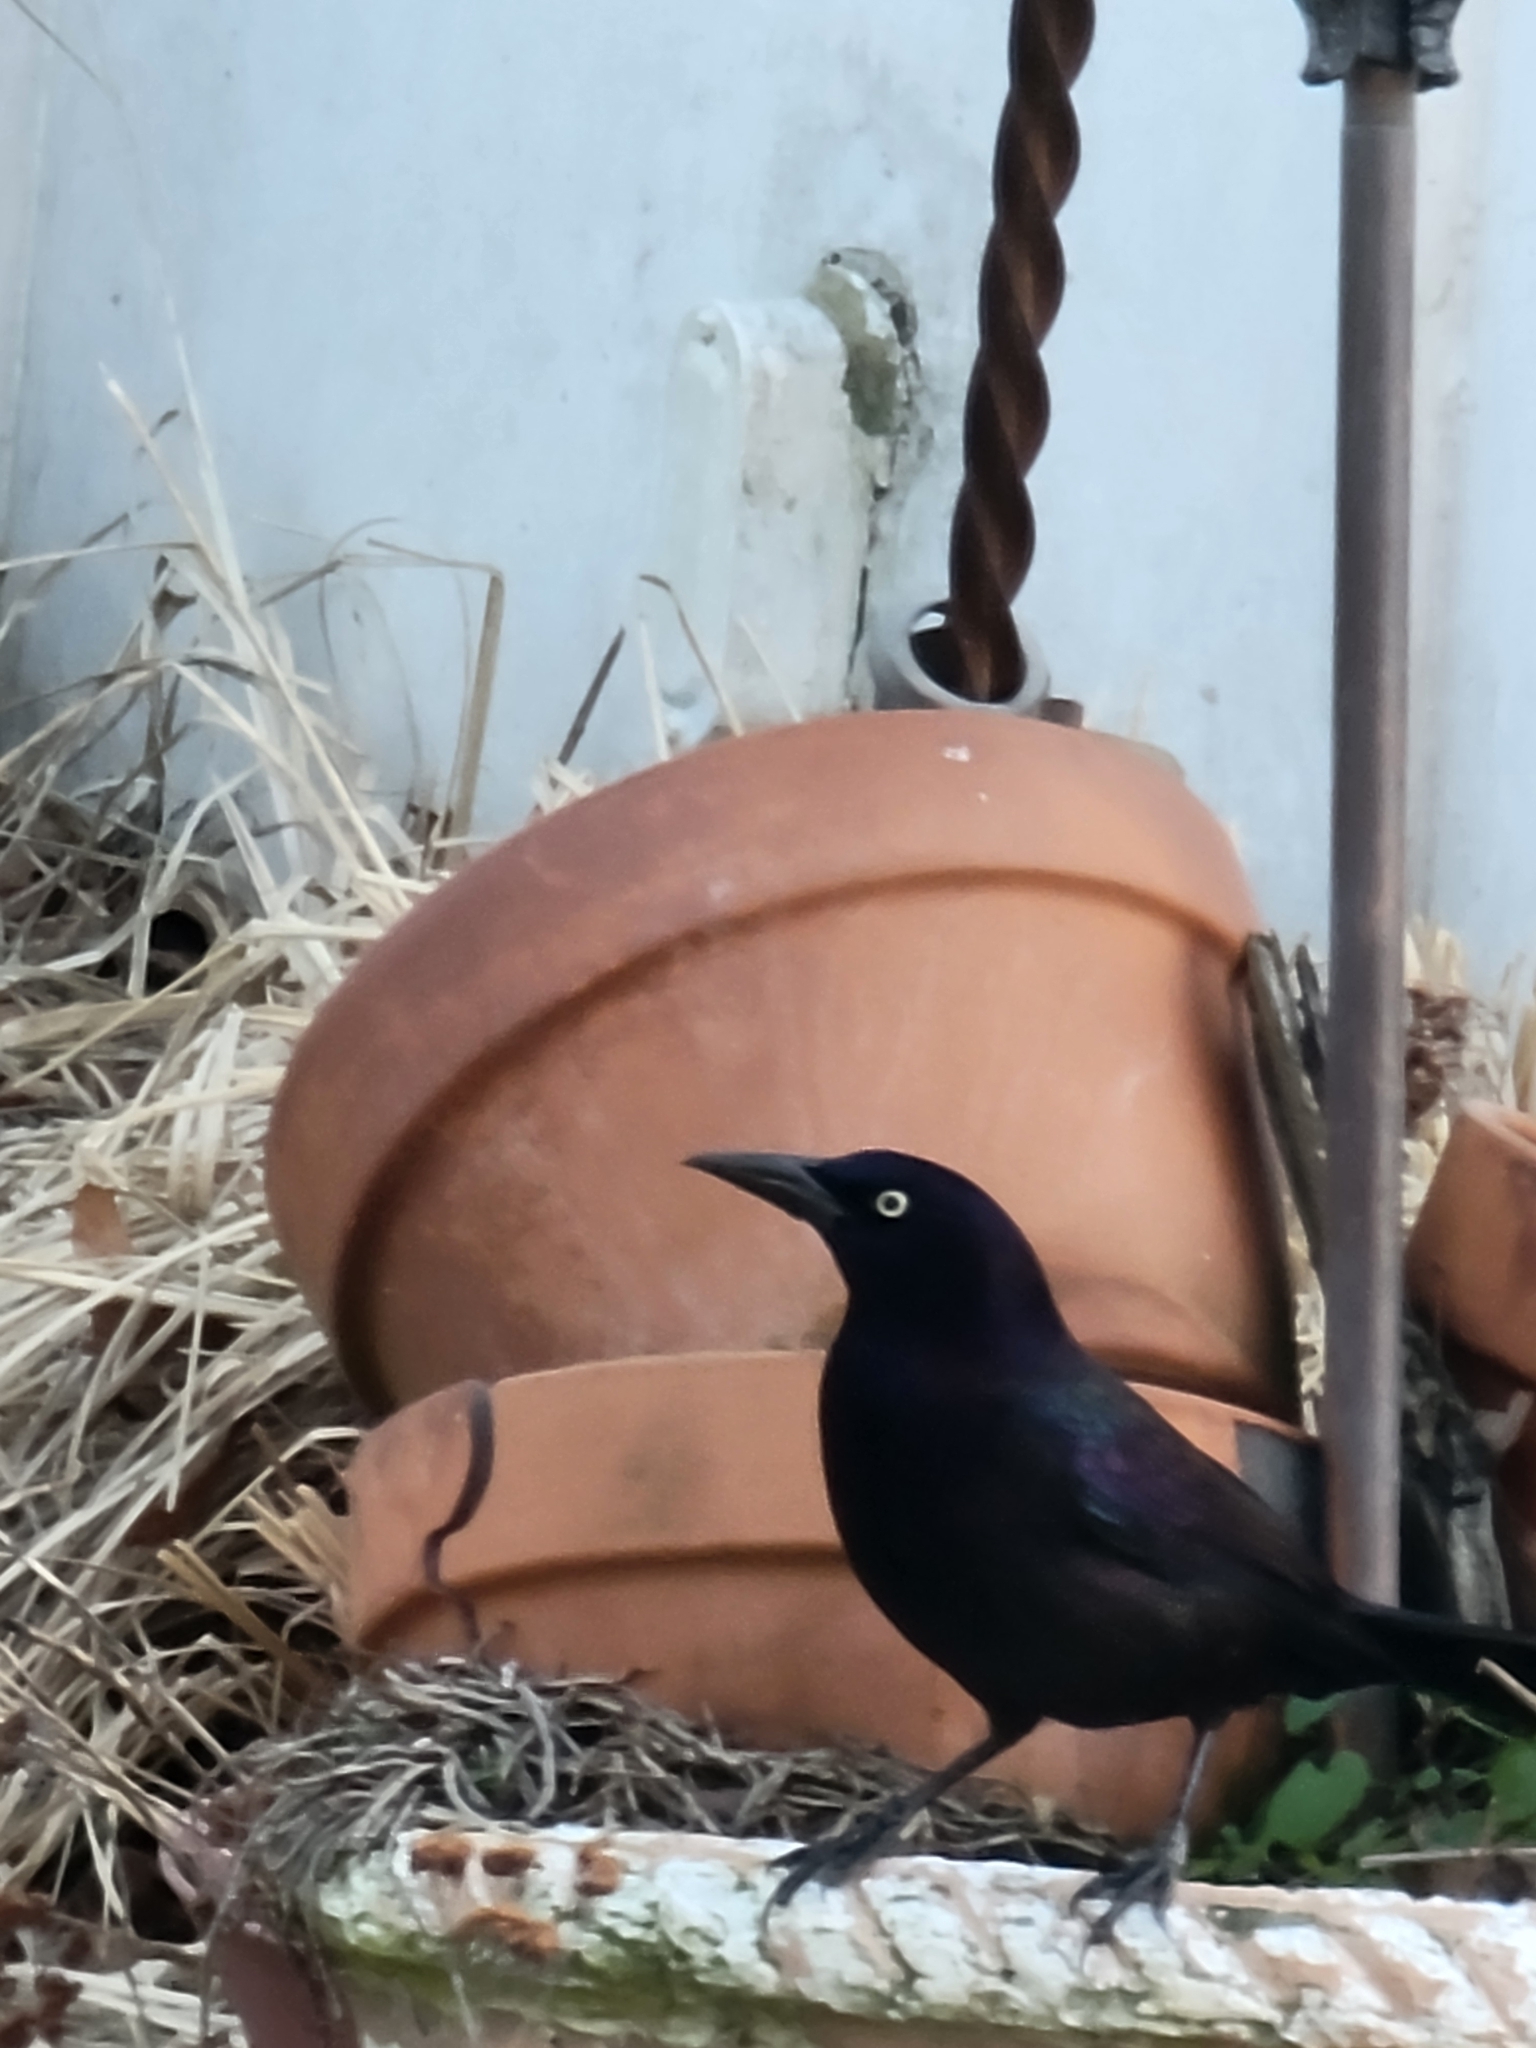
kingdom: Animalia
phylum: Chordata
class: Aves
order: Passeriformes
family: Icteridae
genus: Quiscalus
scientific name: Quiscalus quiscula
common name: Common grackle
